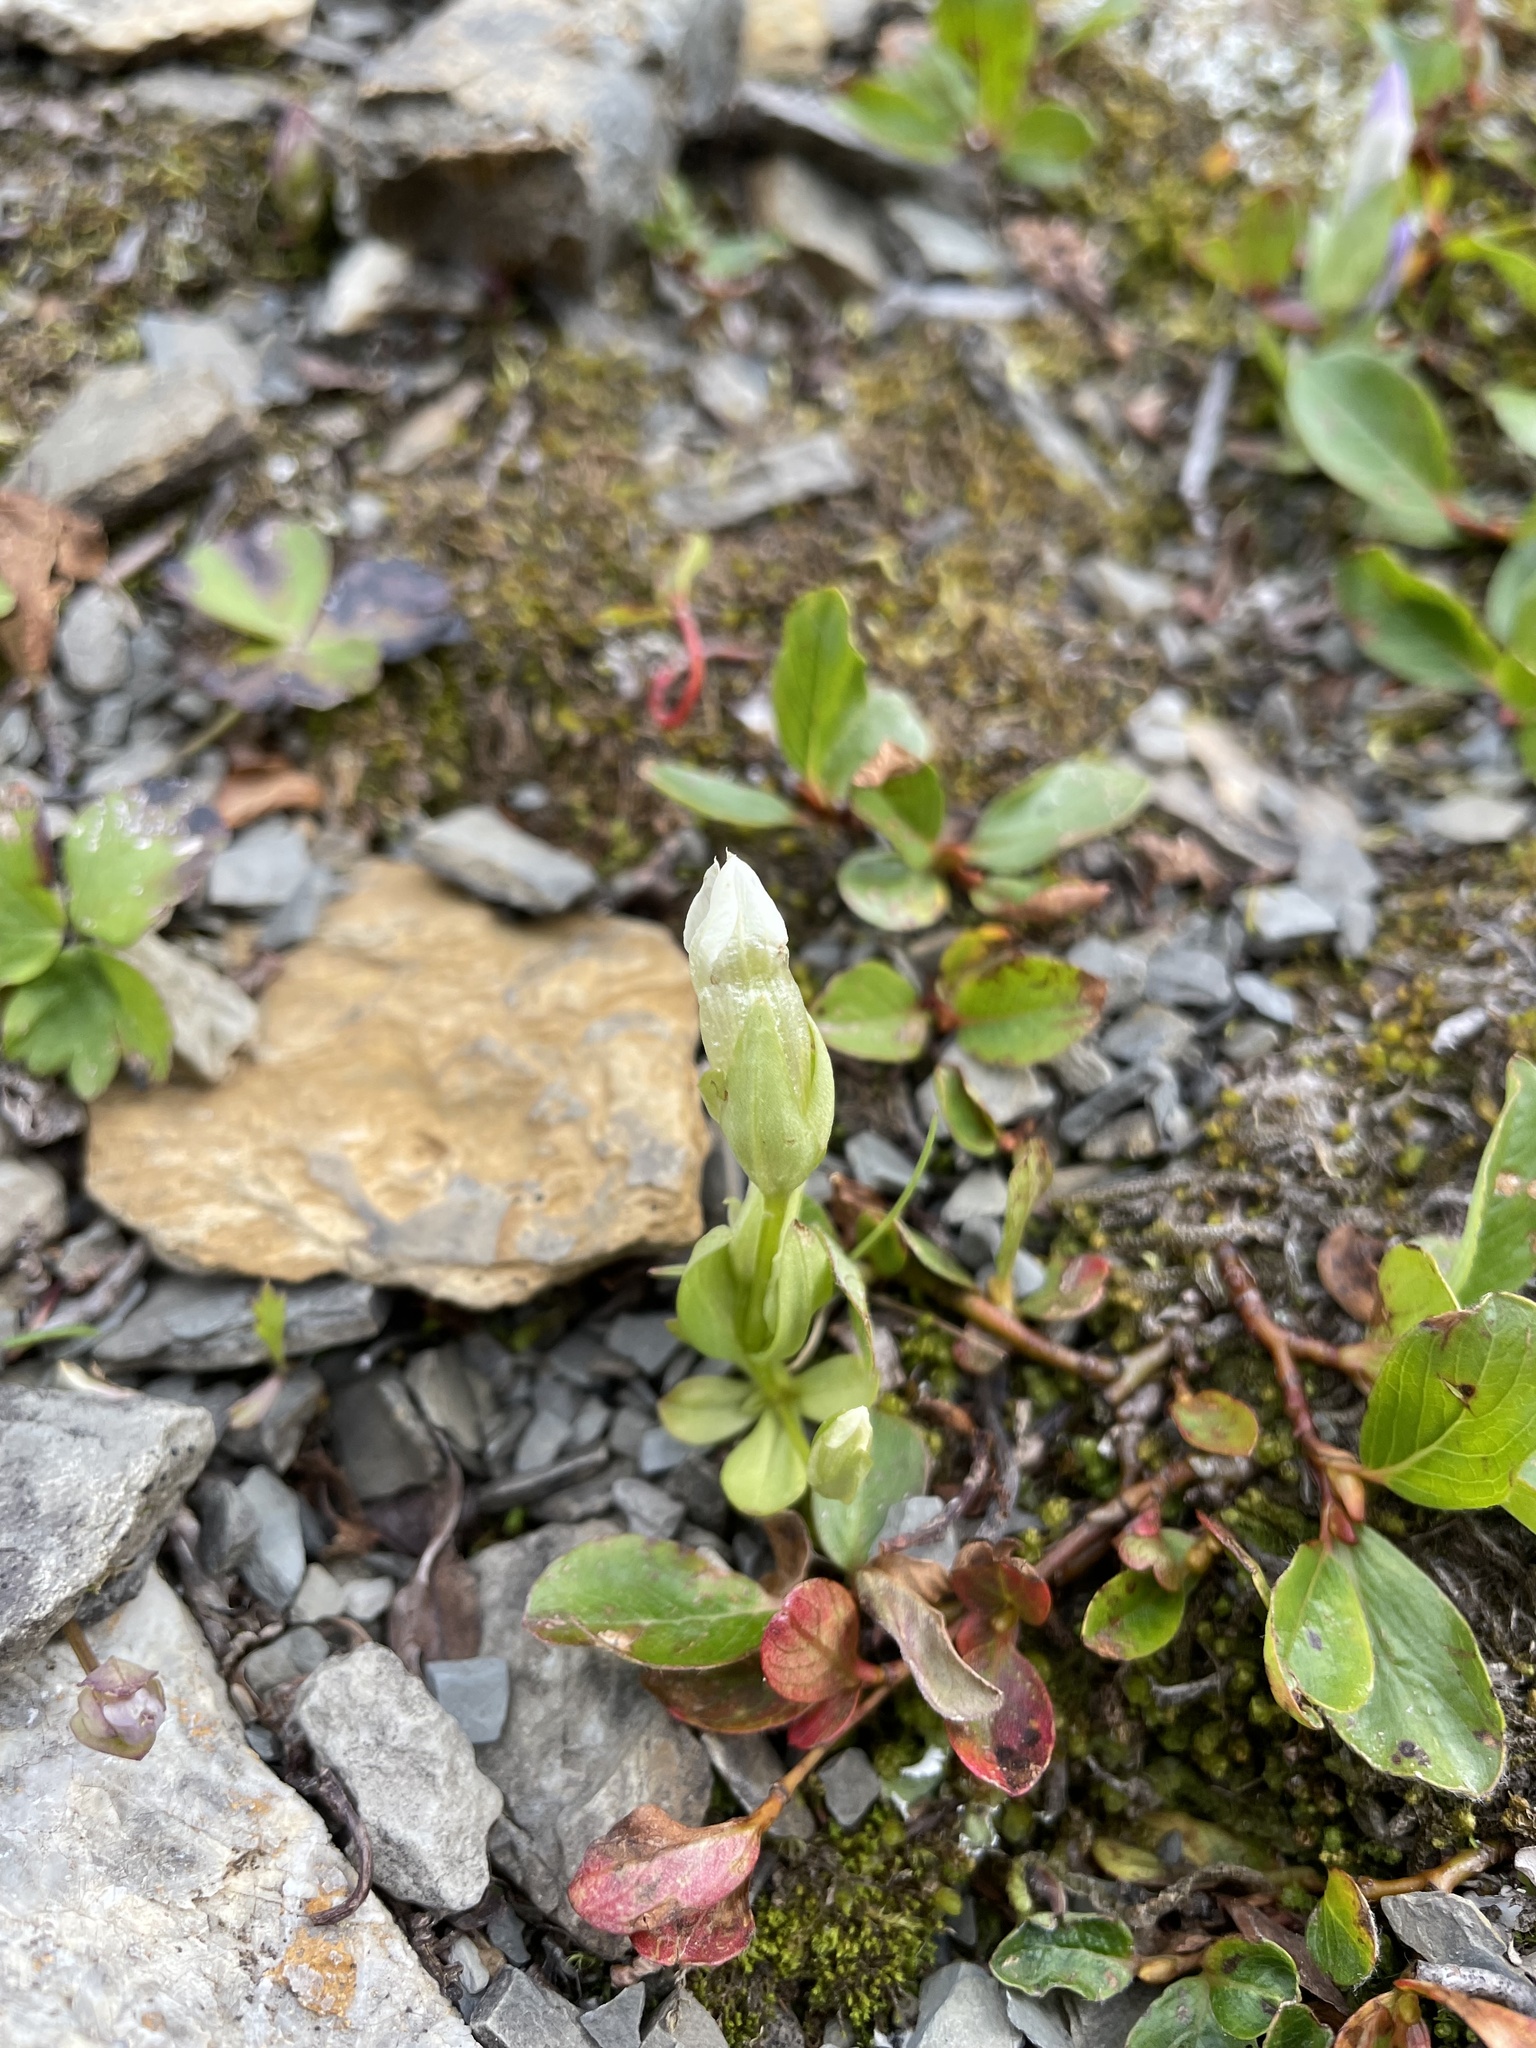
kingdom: Plantae
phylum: Tracheophyta
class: Magnoliopsida
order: Gentianales
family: Gentianaceae
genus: Gentianella
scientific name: Gentianella propinqua
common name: Four-parted dwarf-gentian
